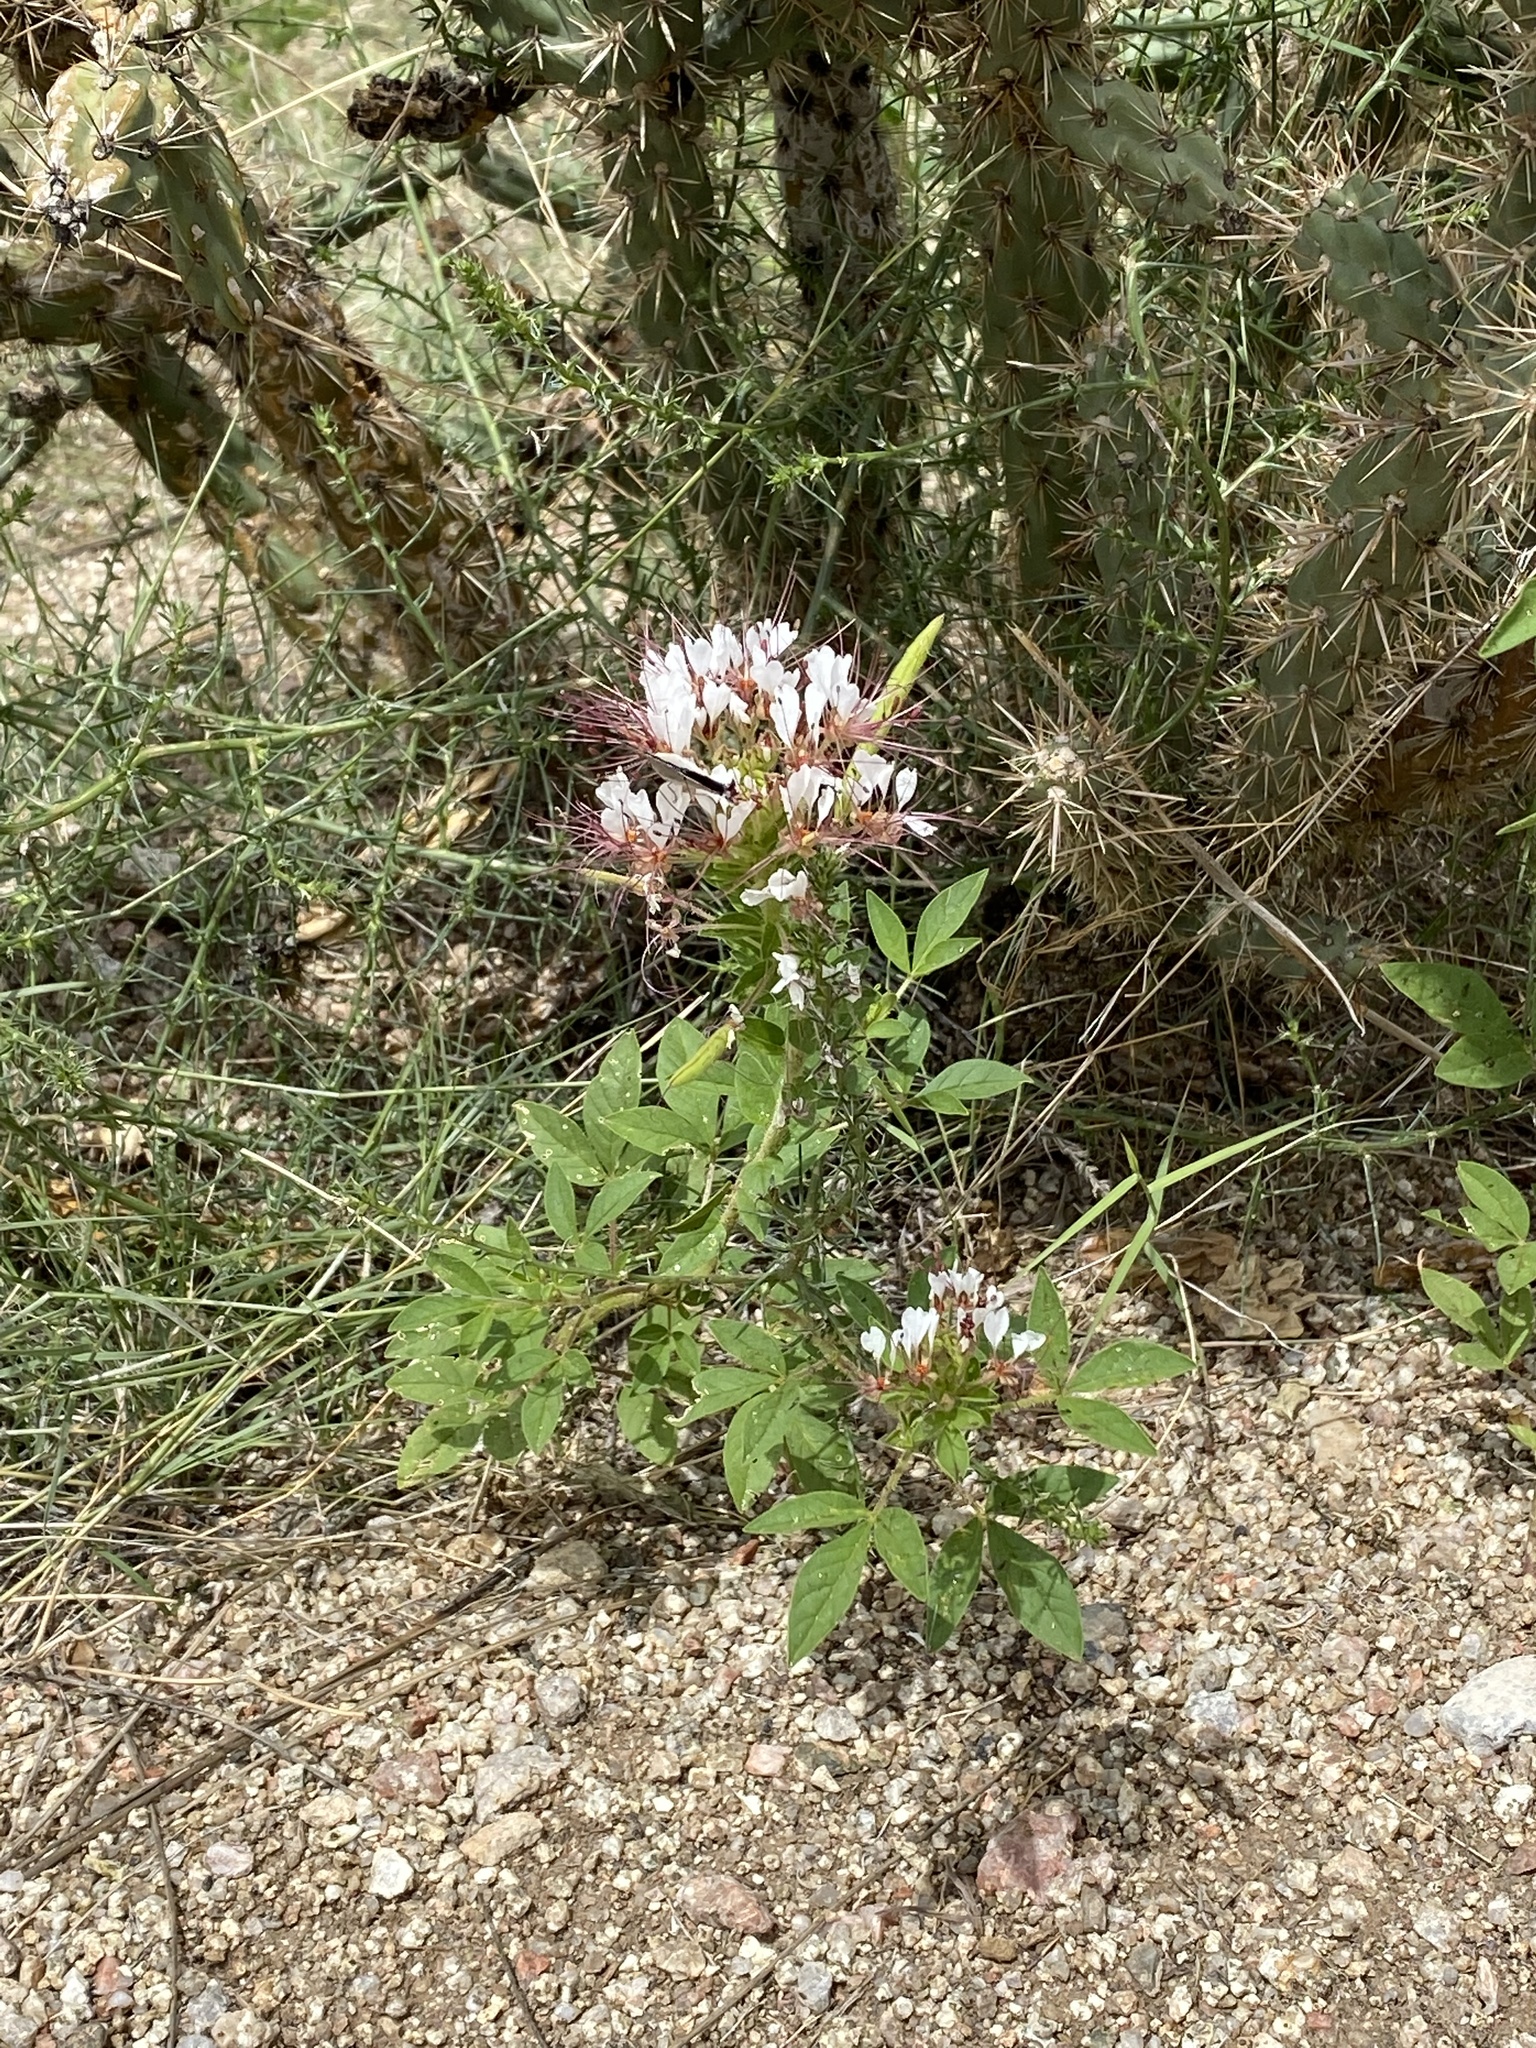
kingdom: Plantae
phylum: Tracheophyta
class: Magnoliopsida
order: Brassicales
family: Cleomaceae
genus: Polanisia
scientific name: Polanisia dodecandra
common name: Clammyweed
